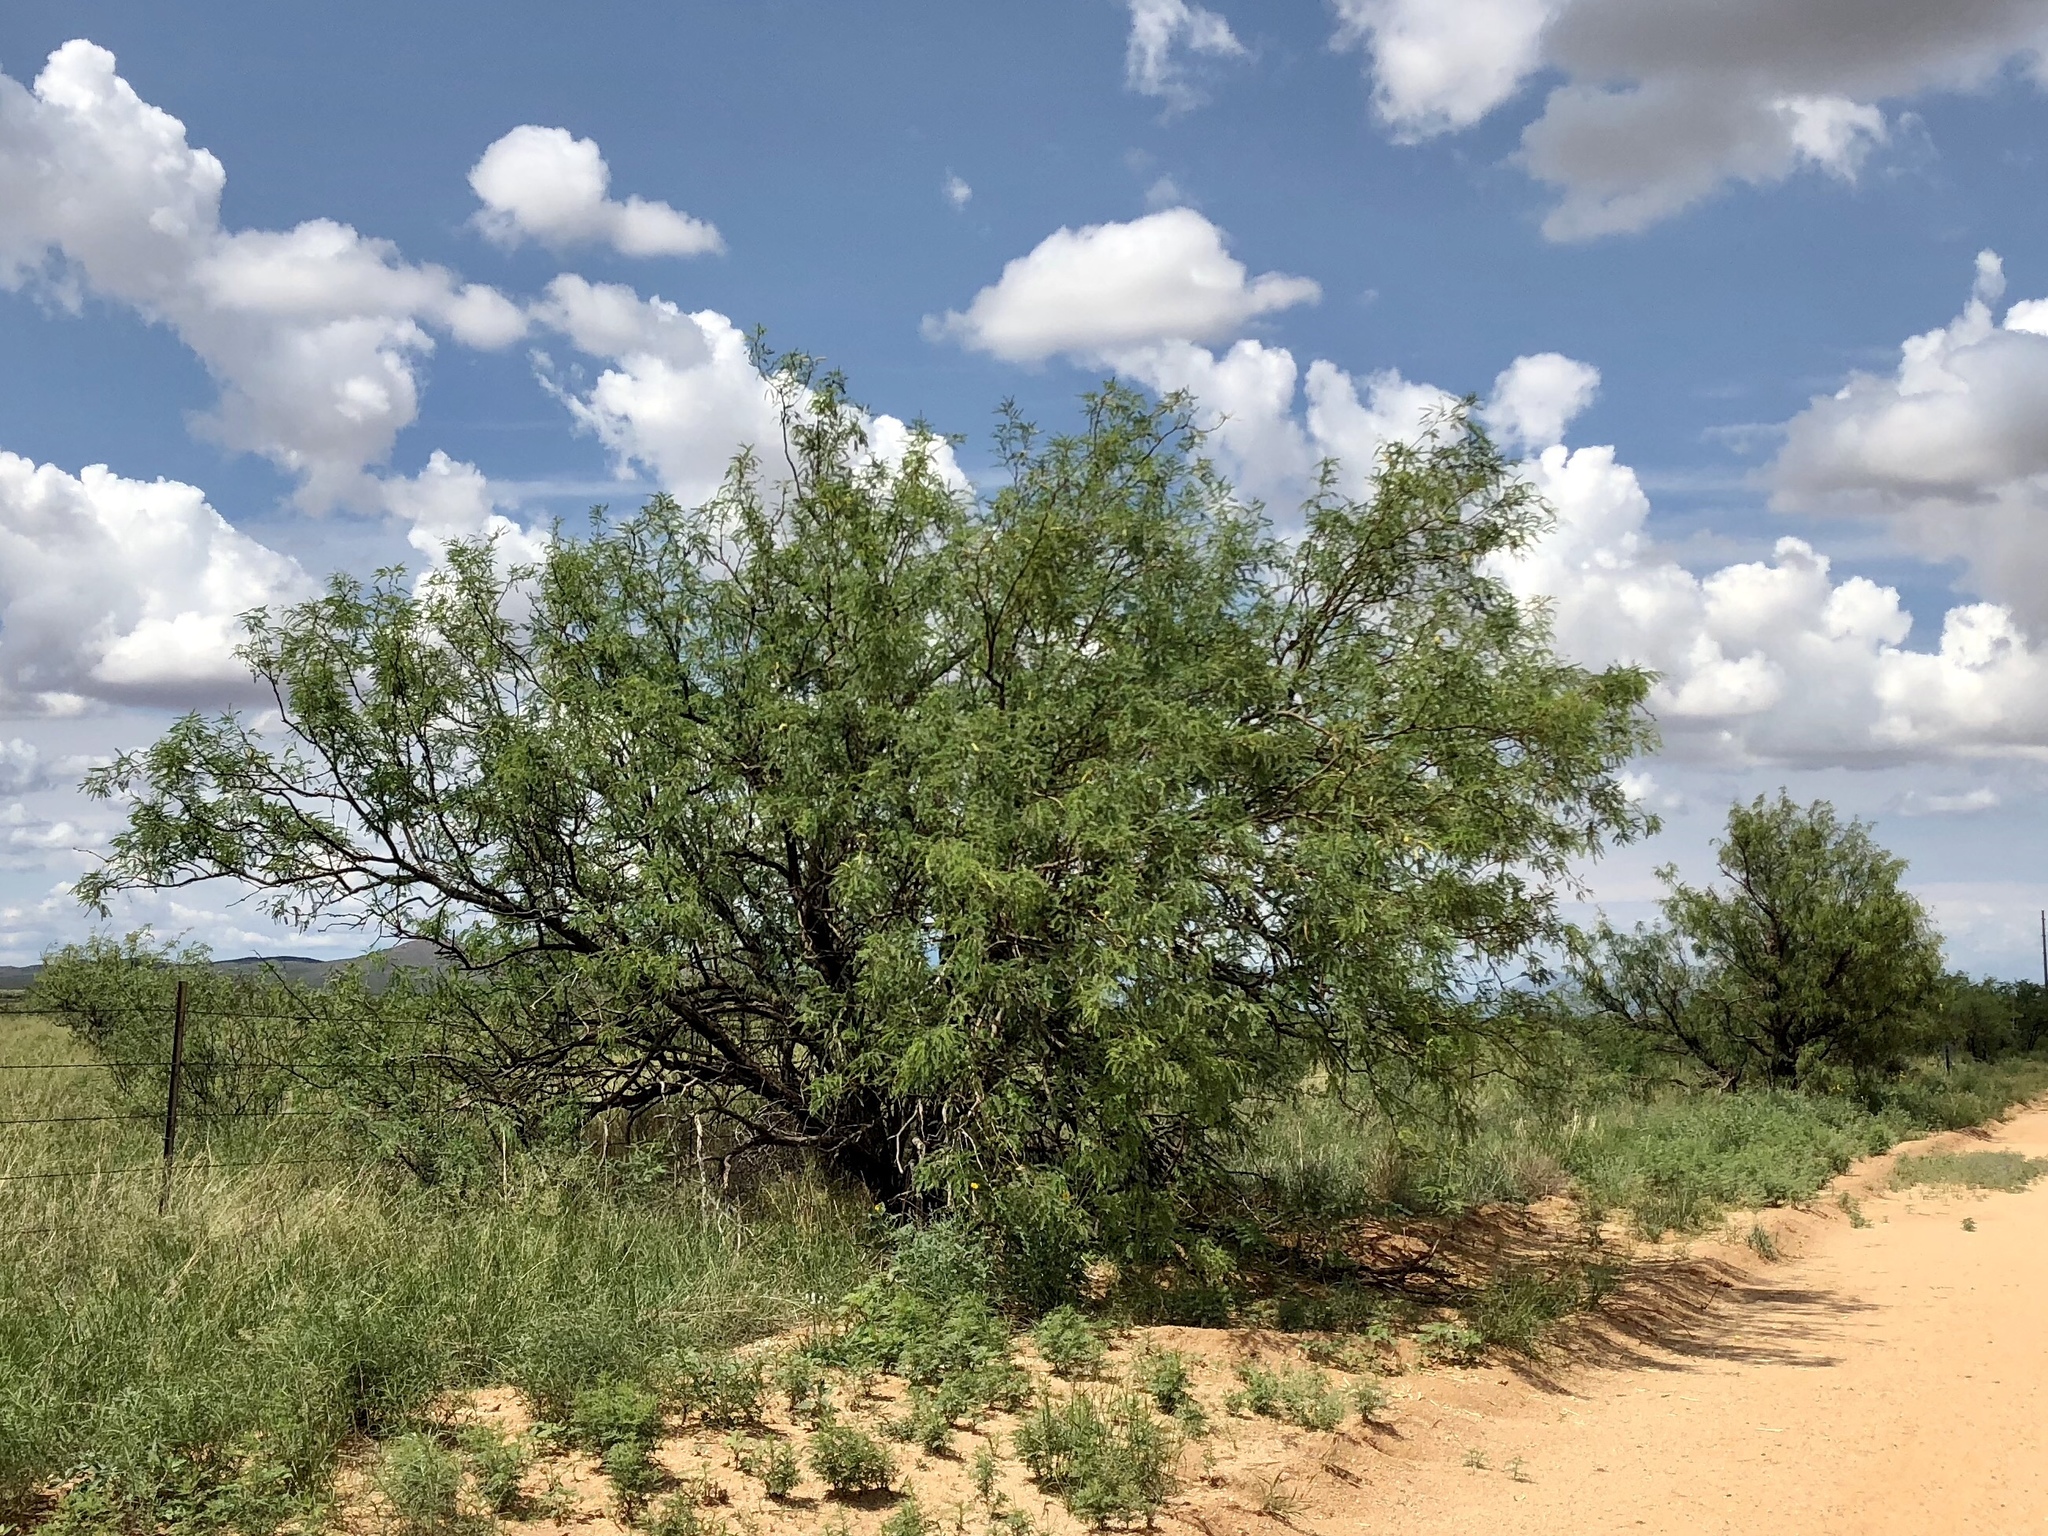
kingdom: Plantae
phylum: Tracheophyta
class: Magnoliopsida
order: Fabales
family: Fabaceae
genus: Prosopis
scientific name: Prosopis glandulosa
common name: Honey mesquite
